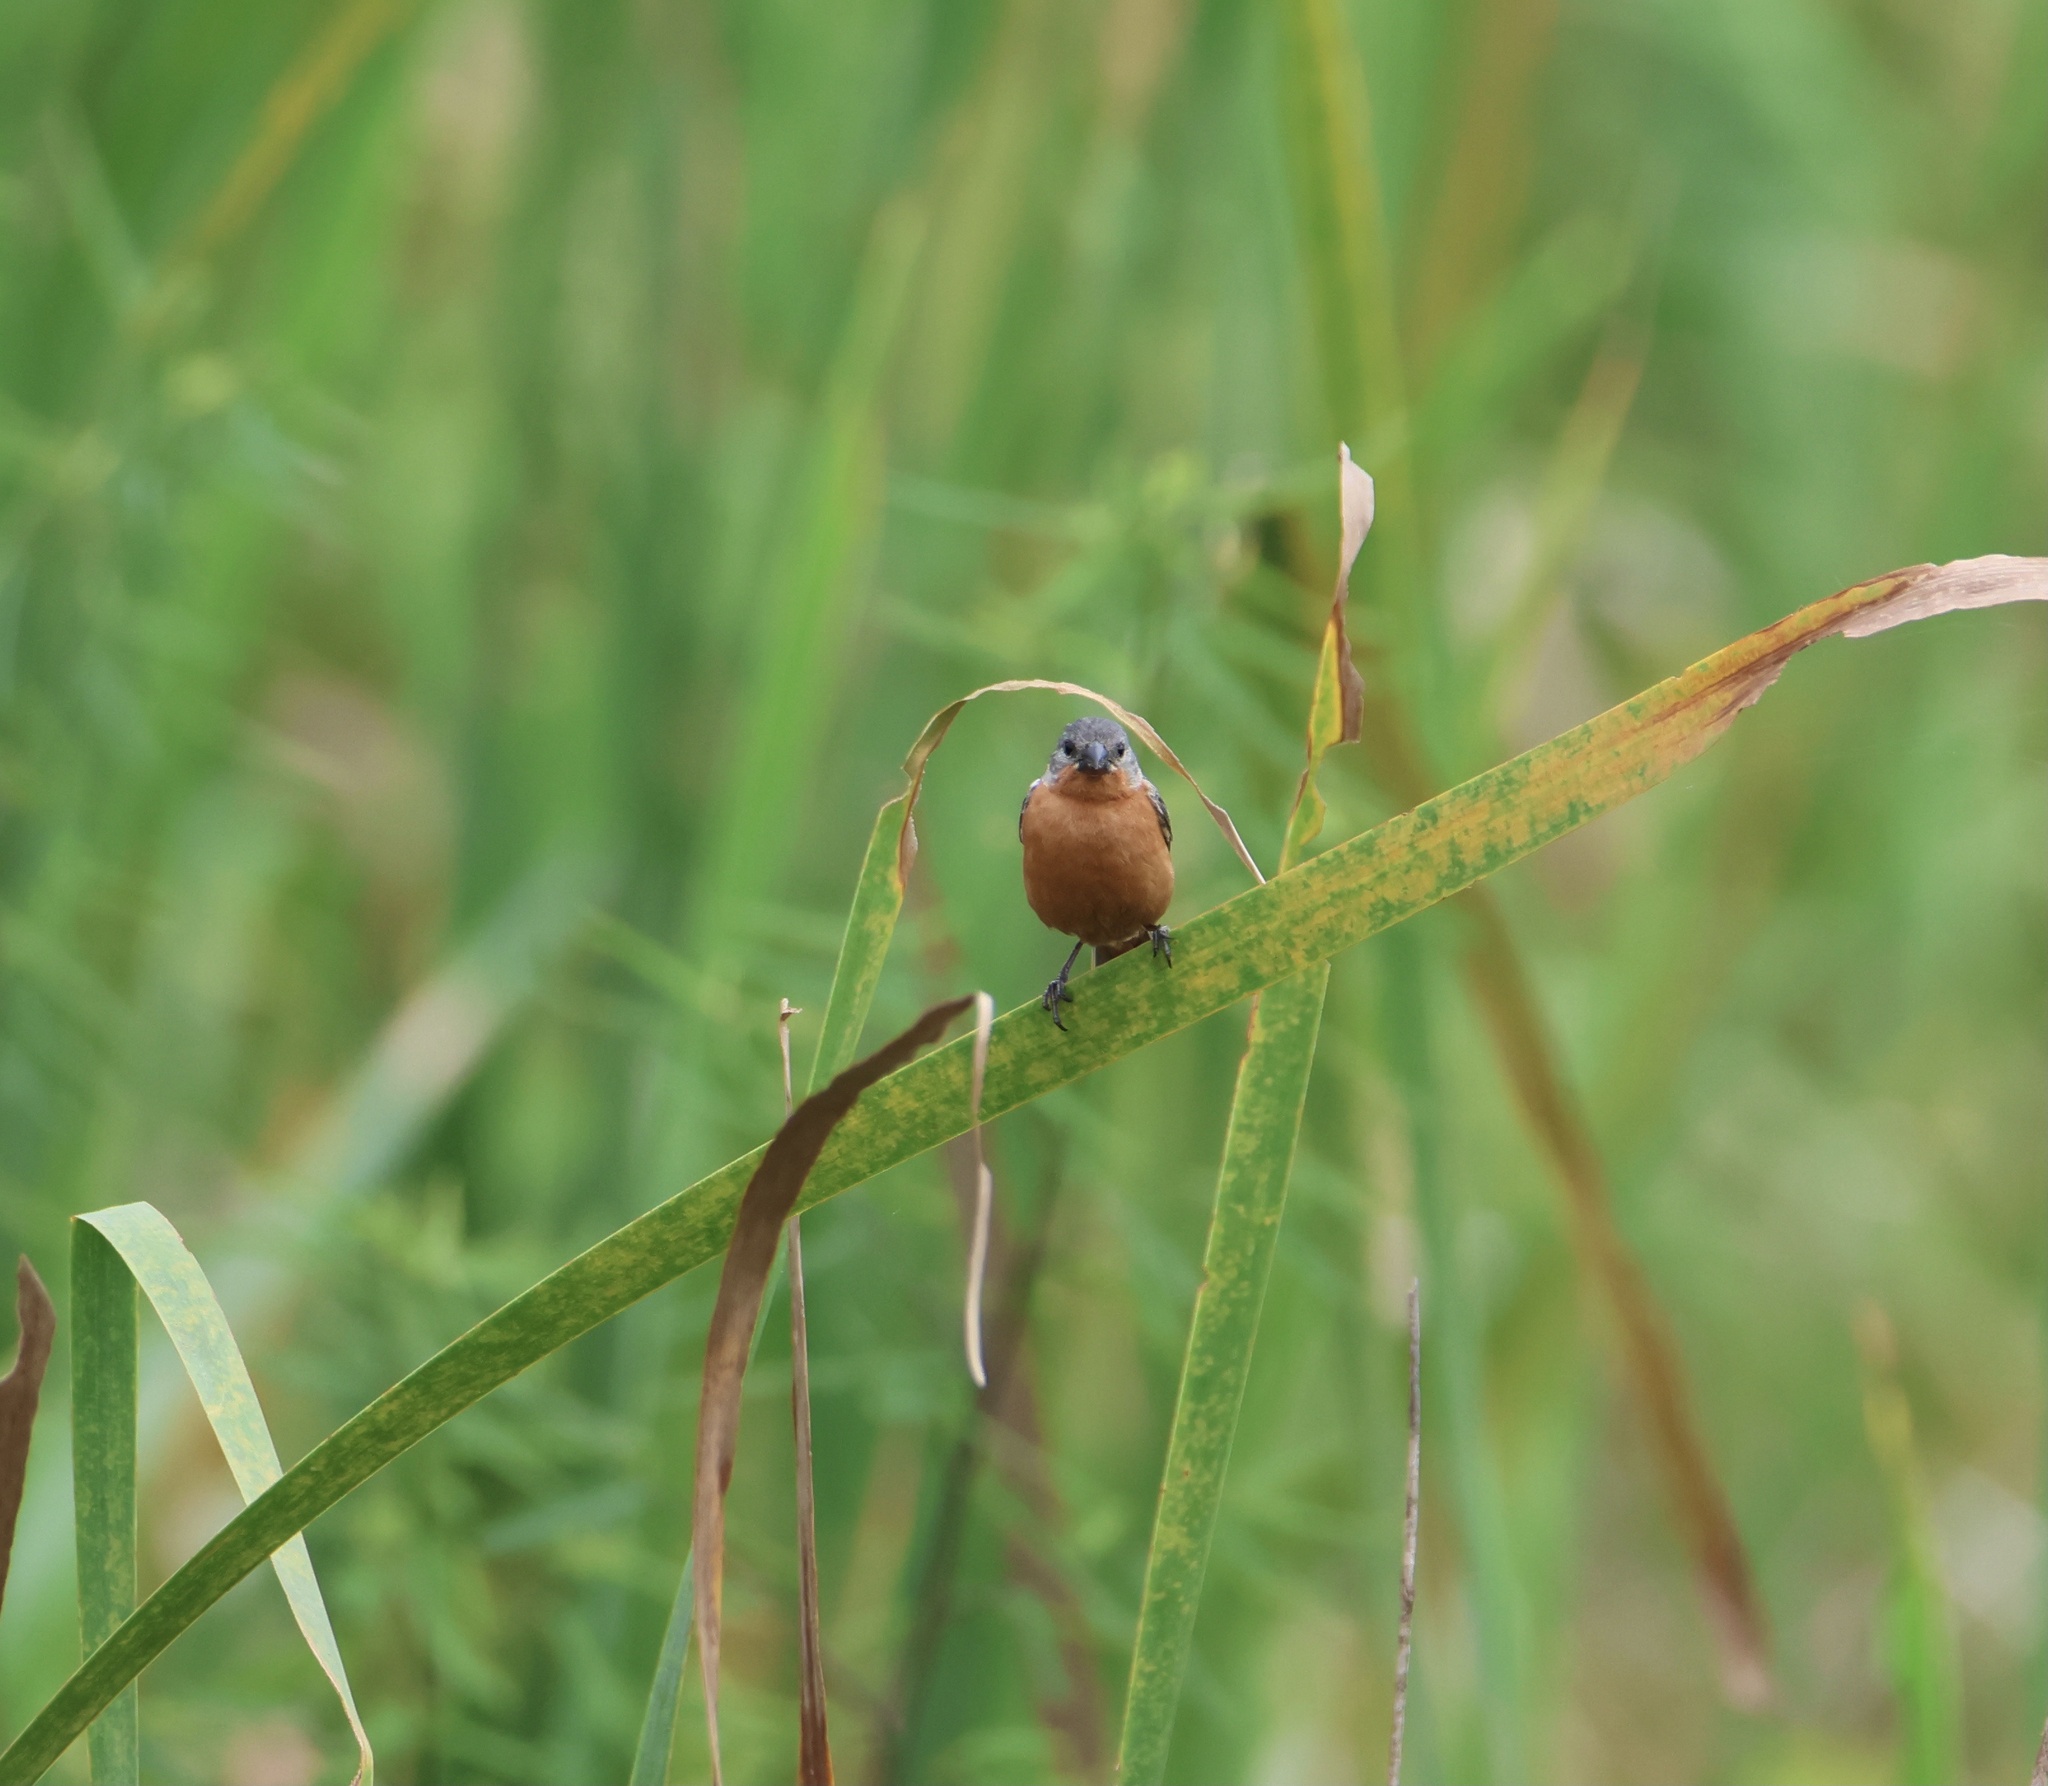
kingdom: Animalia
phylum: Chordata
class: Aves
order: Passeriformes
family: Thraupidae
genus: Sporophila
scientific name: Sporophila minuta
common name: Ruddy-breasted seedeater
